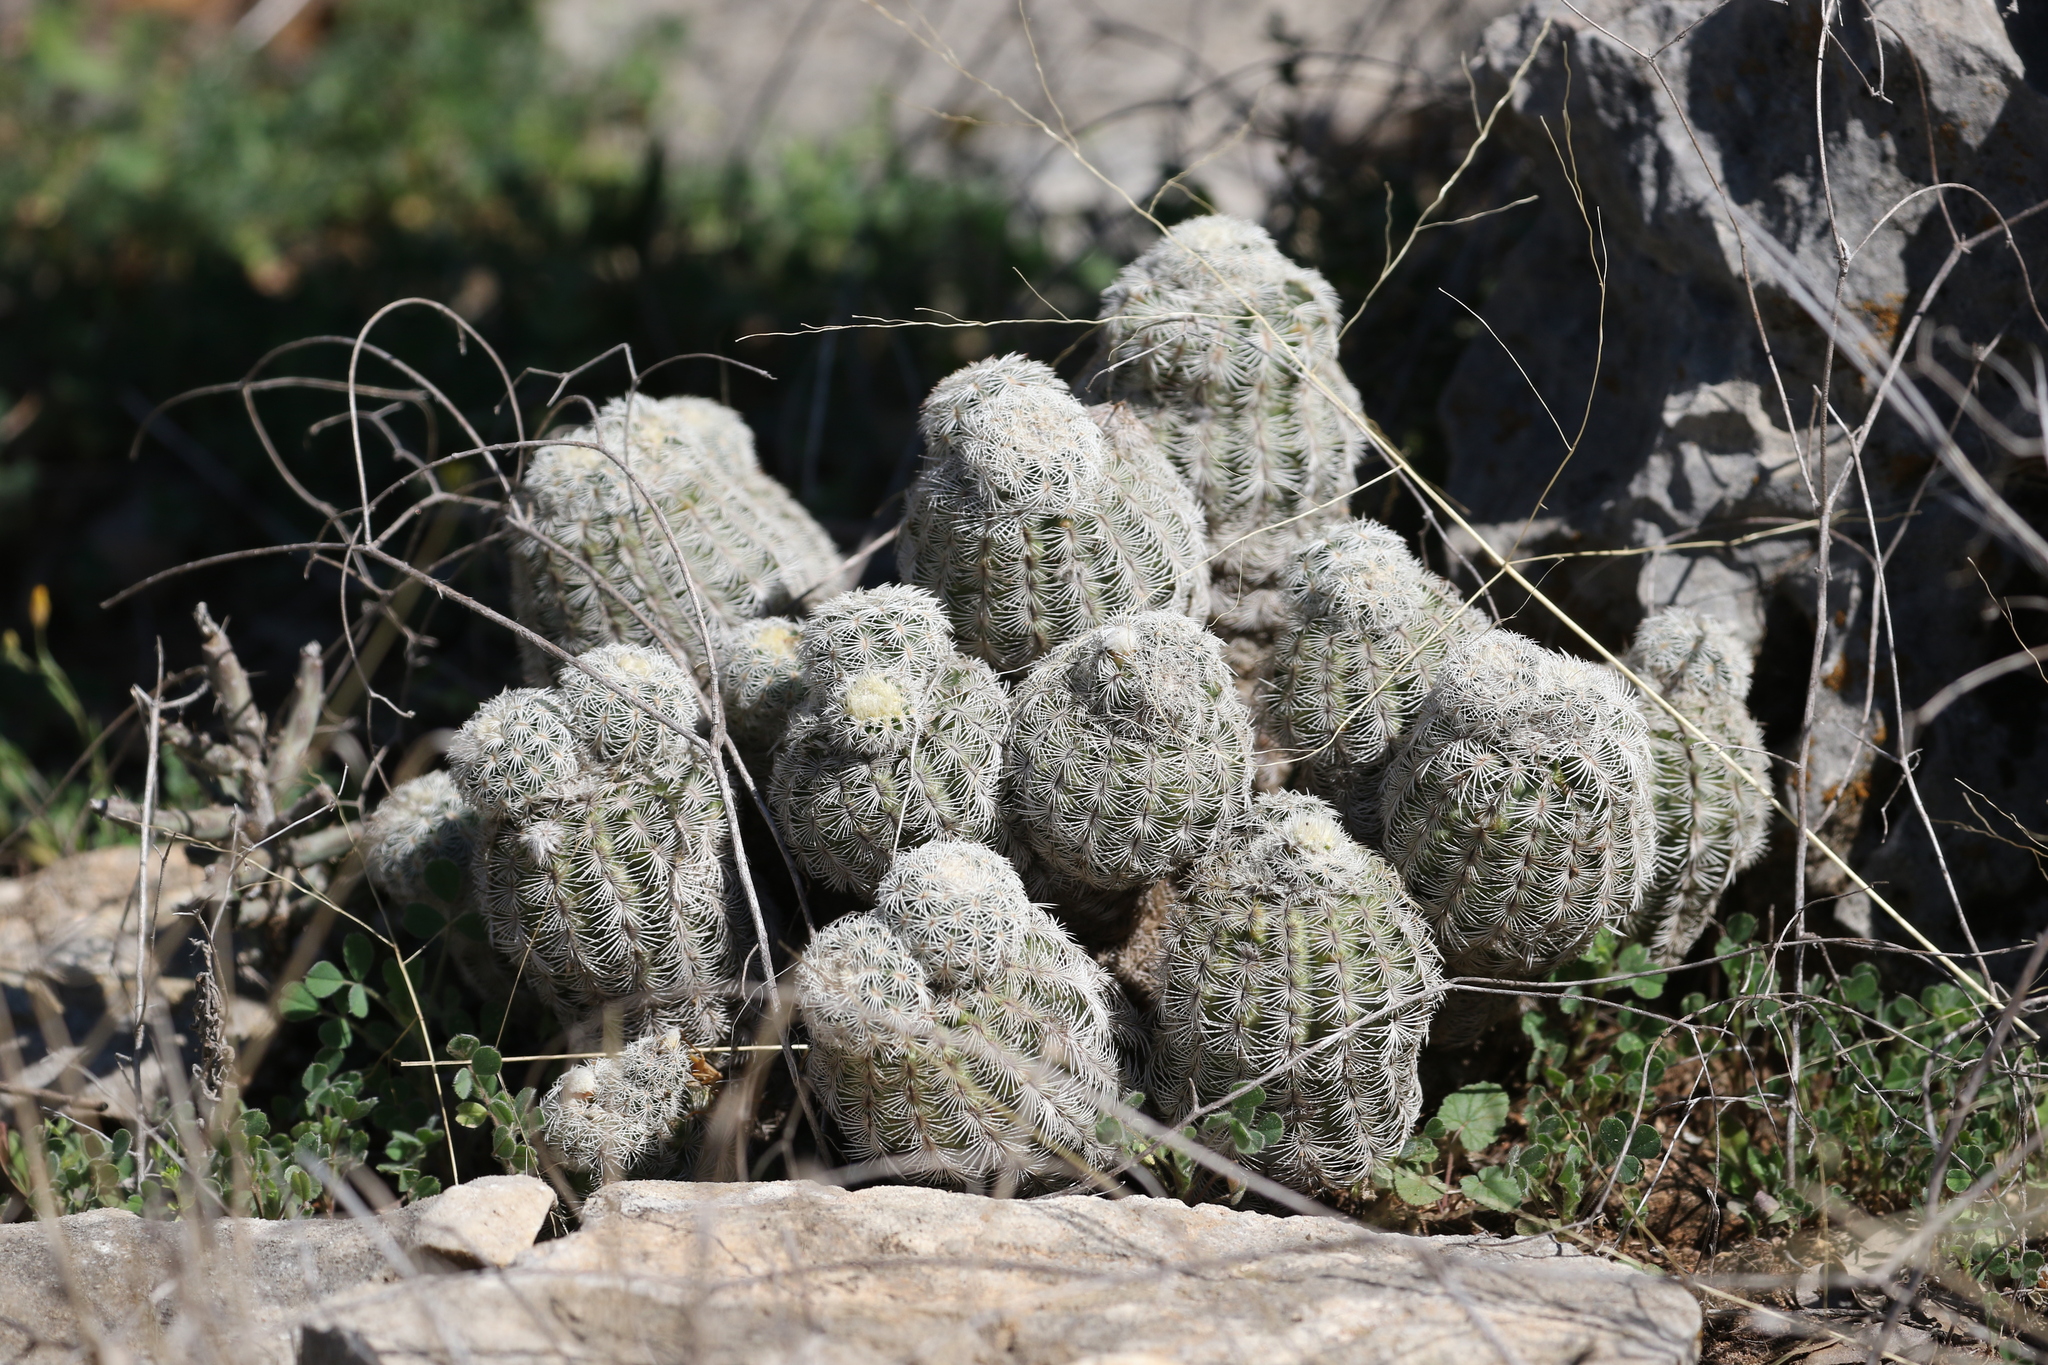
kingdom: Plantae
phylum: Tracheophyta
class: Magnoliopsida
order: Caryophyllales
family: Cactaceae
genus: Echinocereus
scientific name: Echinocereus reichenbachii
